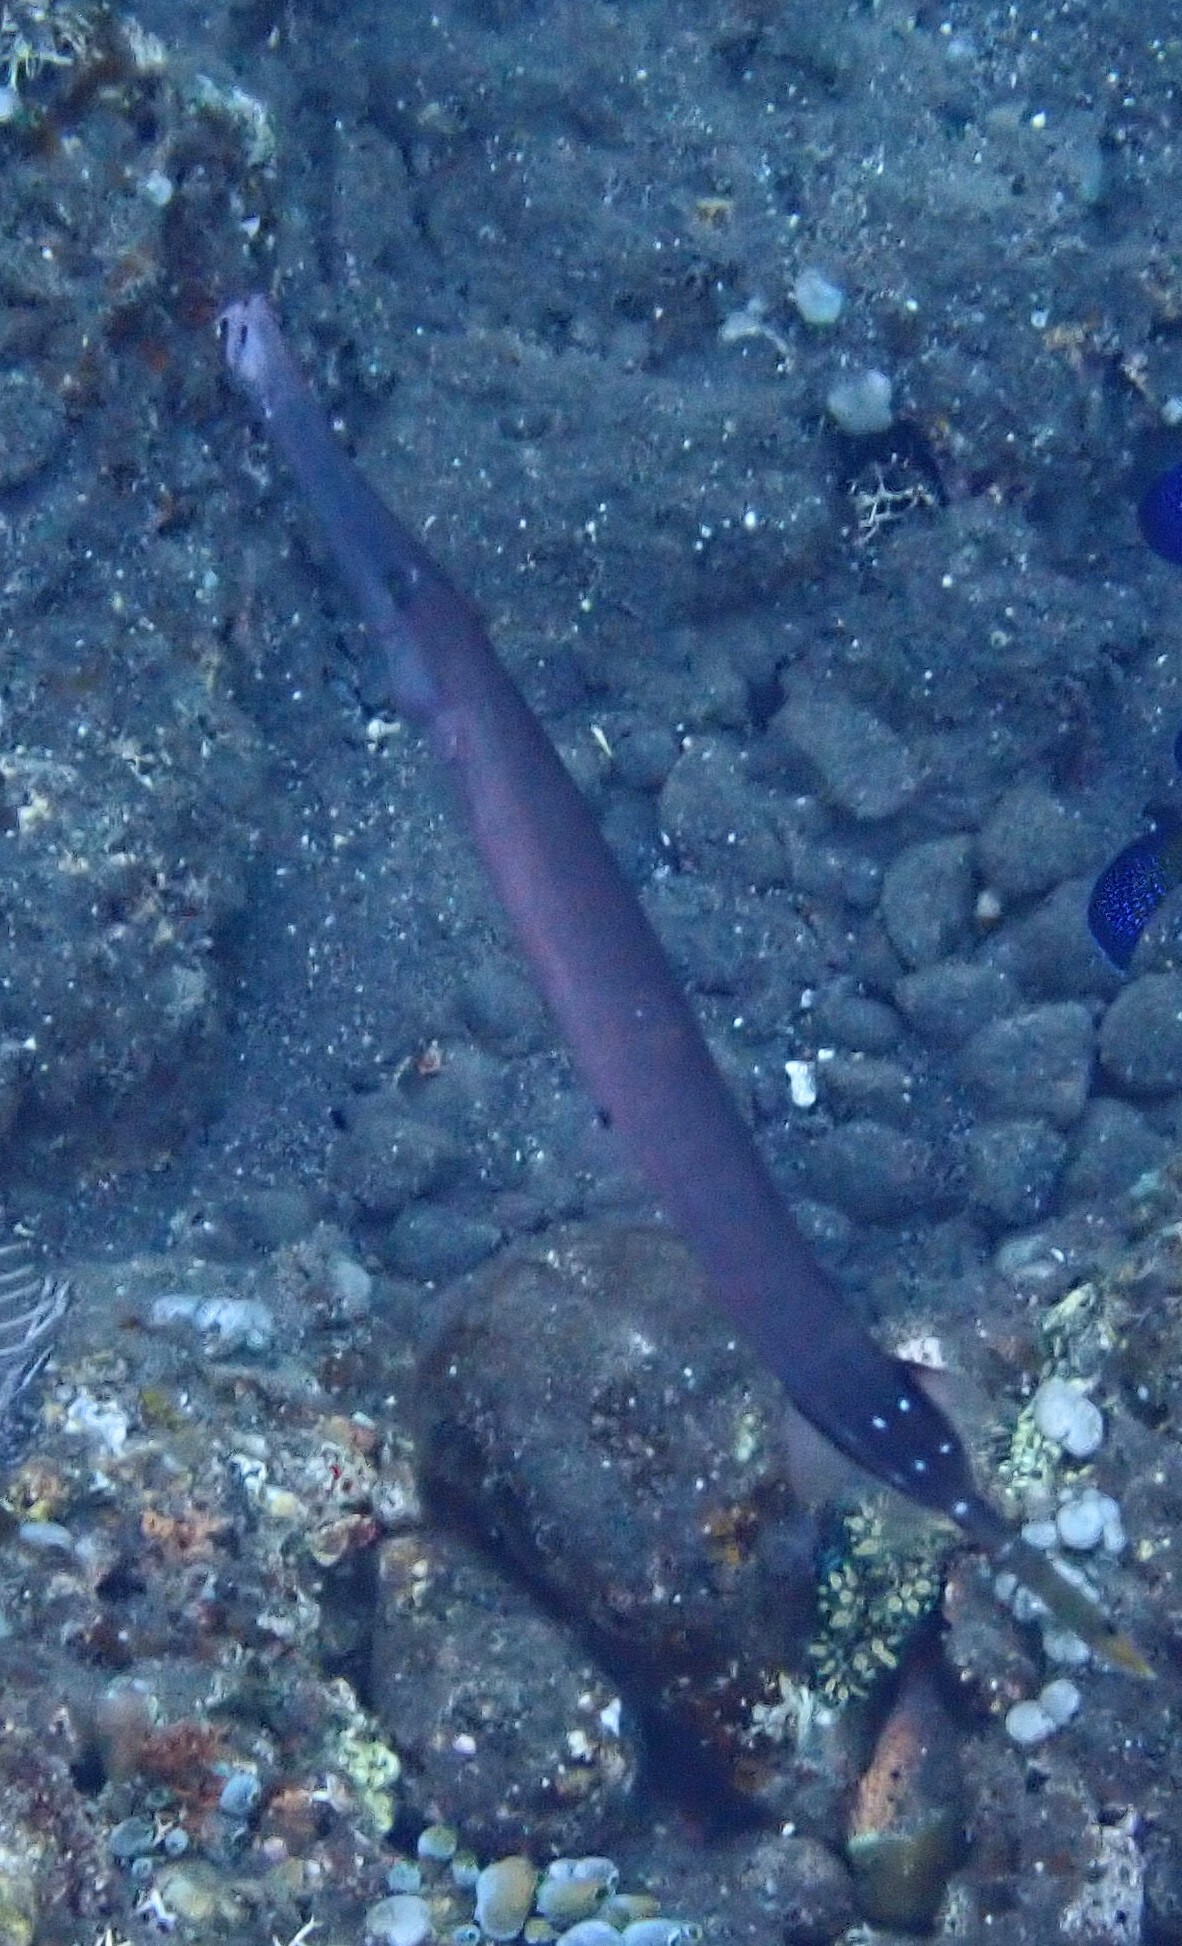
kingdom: Animalia
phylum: Chordata
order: Syngnathiformes
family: Aulostomidae
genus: Aulostomus
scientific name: Aulostomus chinensis
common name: Chinese trumpetfish
